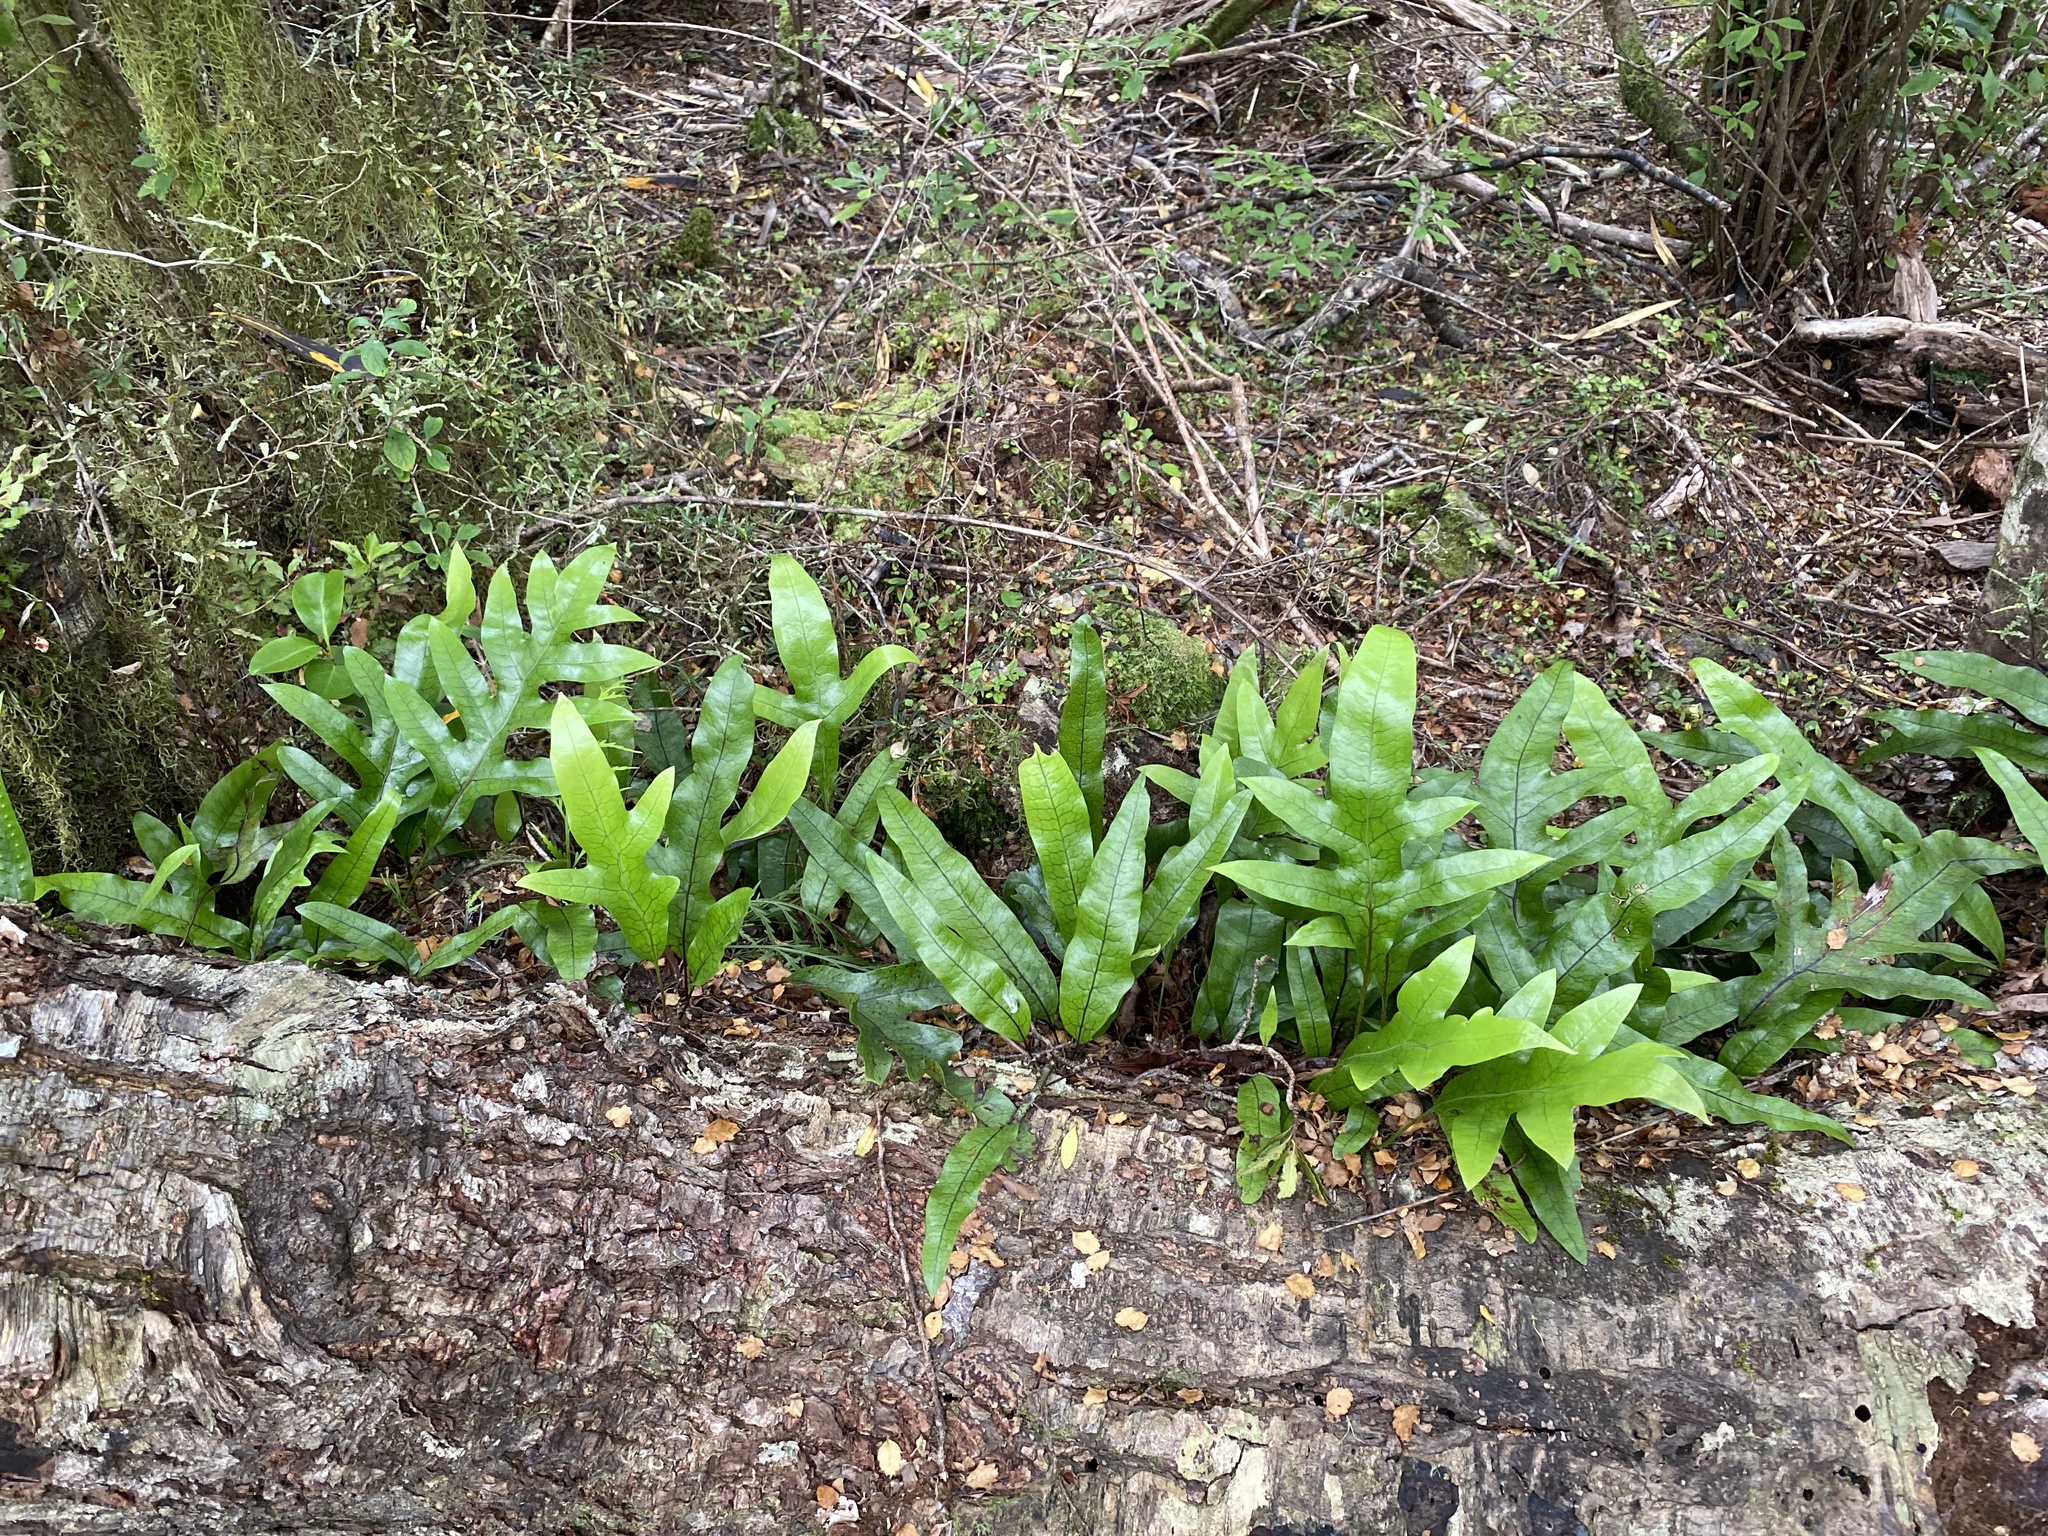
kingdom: Plantae
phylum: Tracheophyta
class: Polypodiopsida
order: Polypodiales
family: Polypodiaceae
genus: Lecanopteris
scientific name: Lecanopteris pustulata
